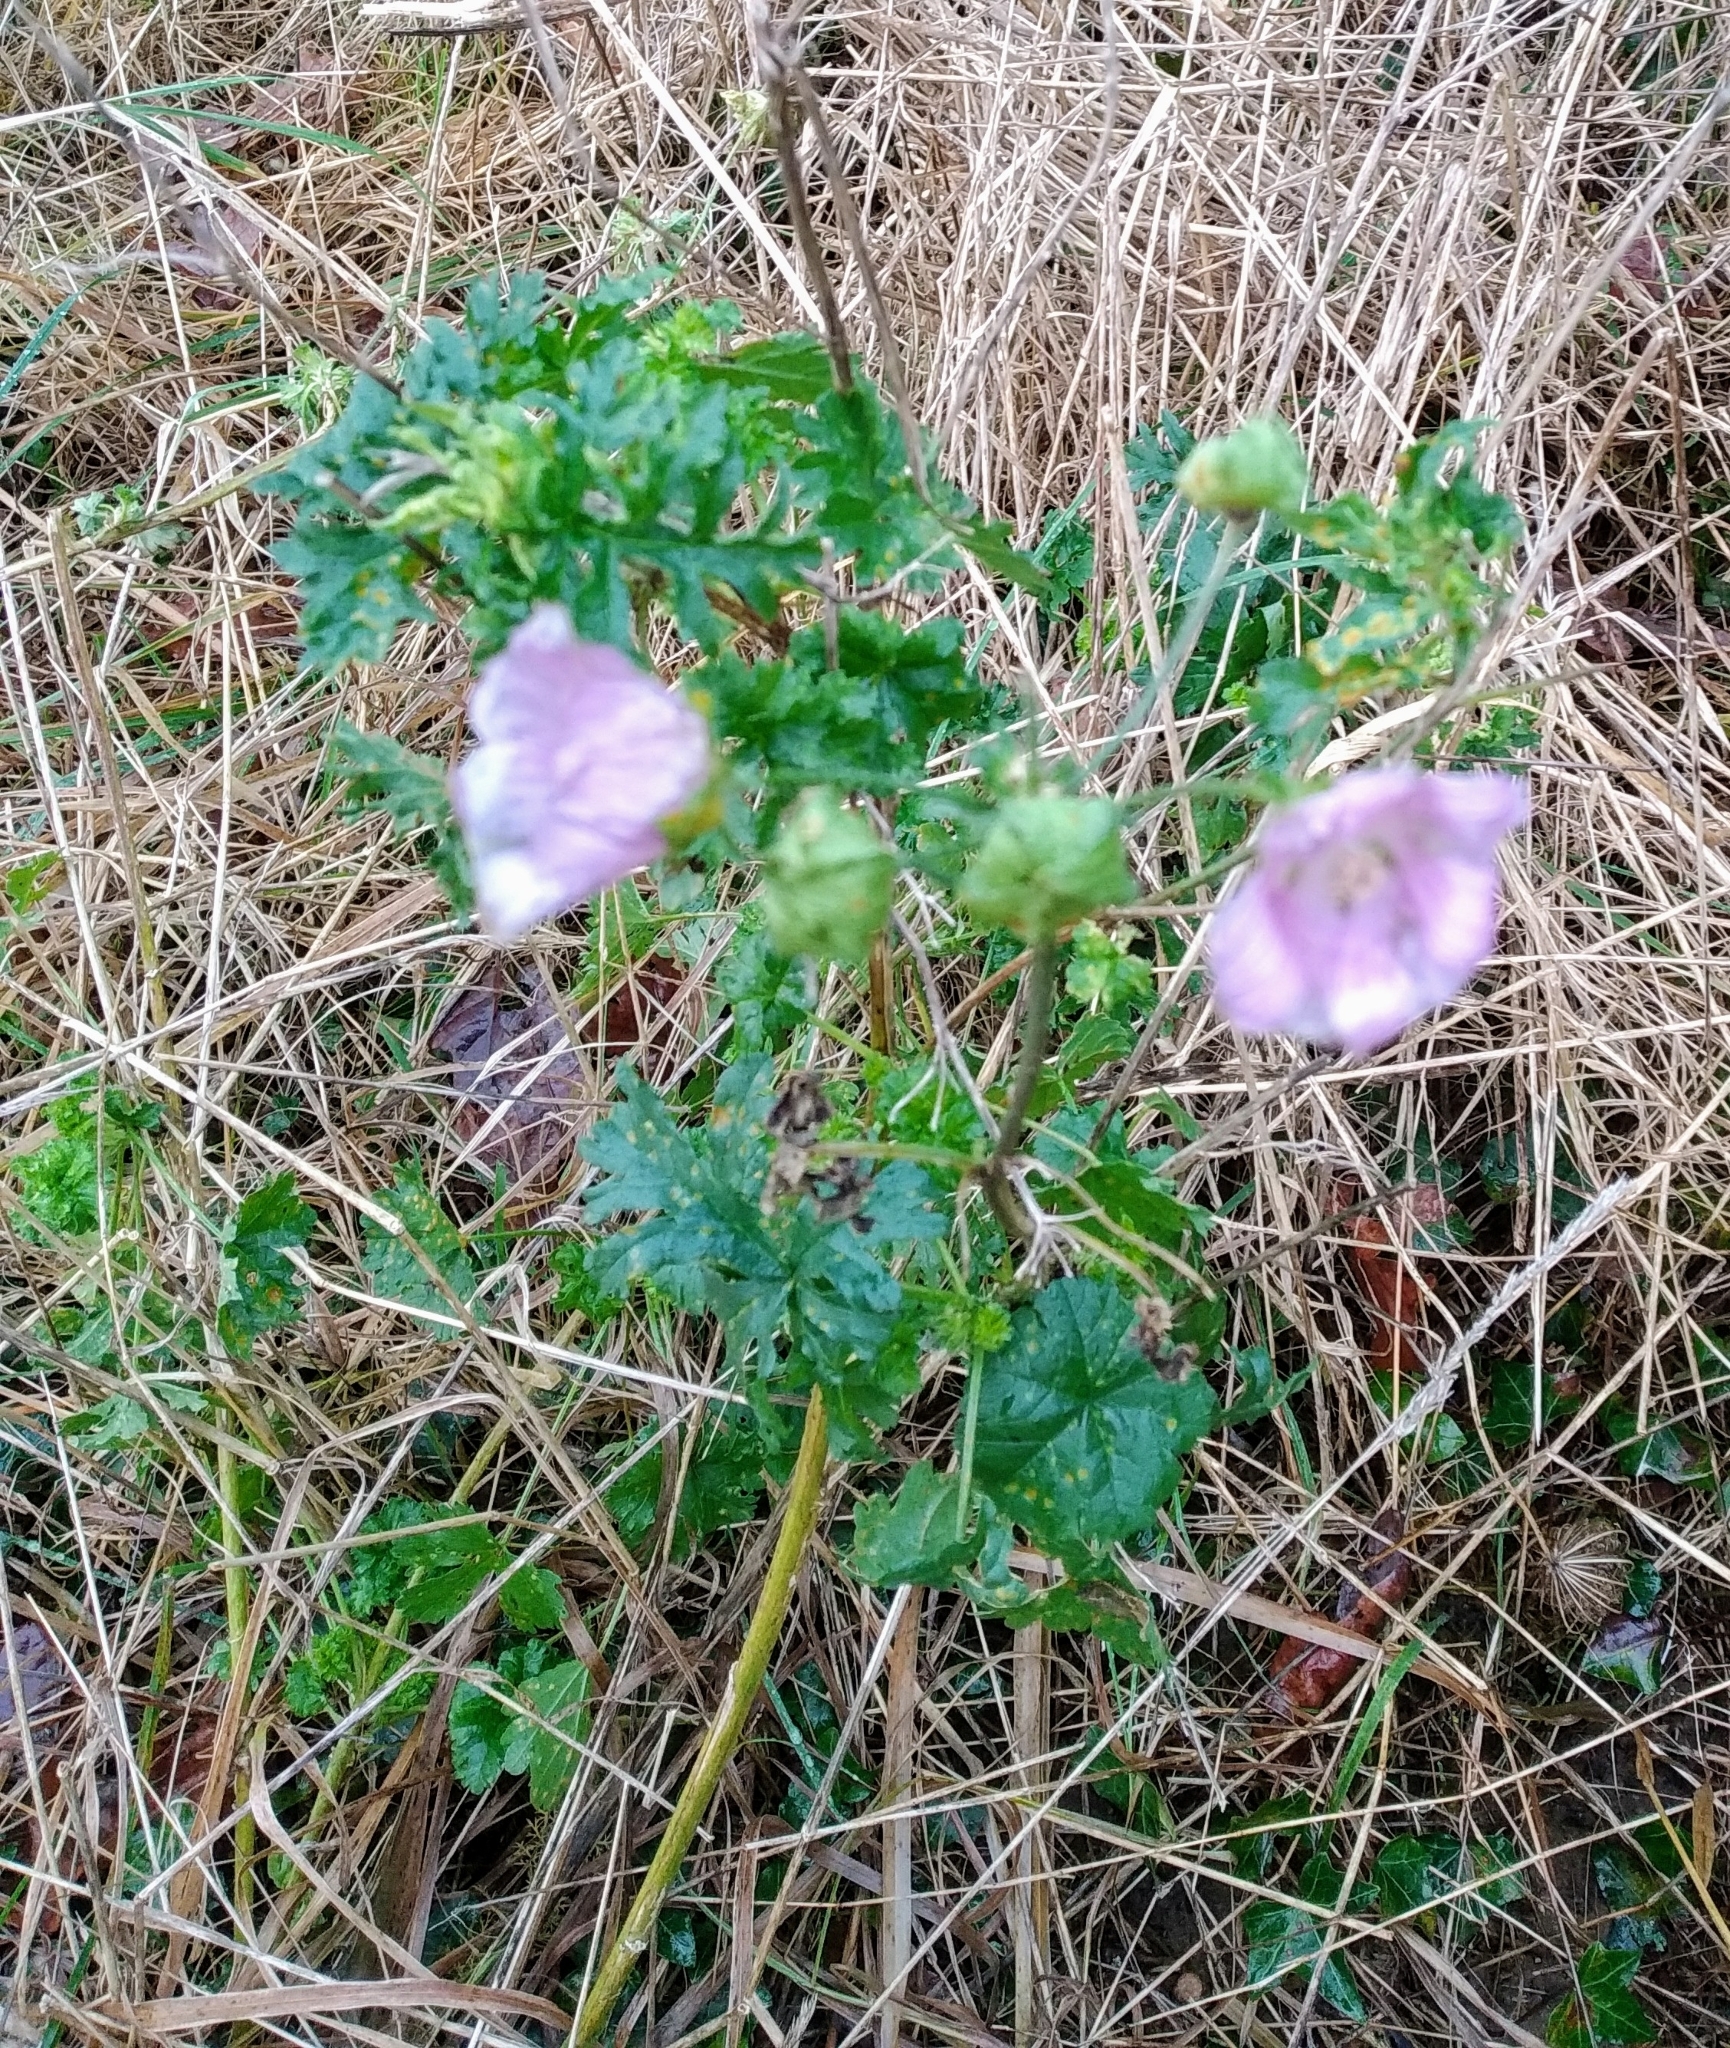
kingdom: Plantae
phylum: Tracheophyta
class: Magnoliopsida
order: Malvales
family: Malvaceae
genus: Malva
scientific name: Malva moschata
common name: Musk mallow
